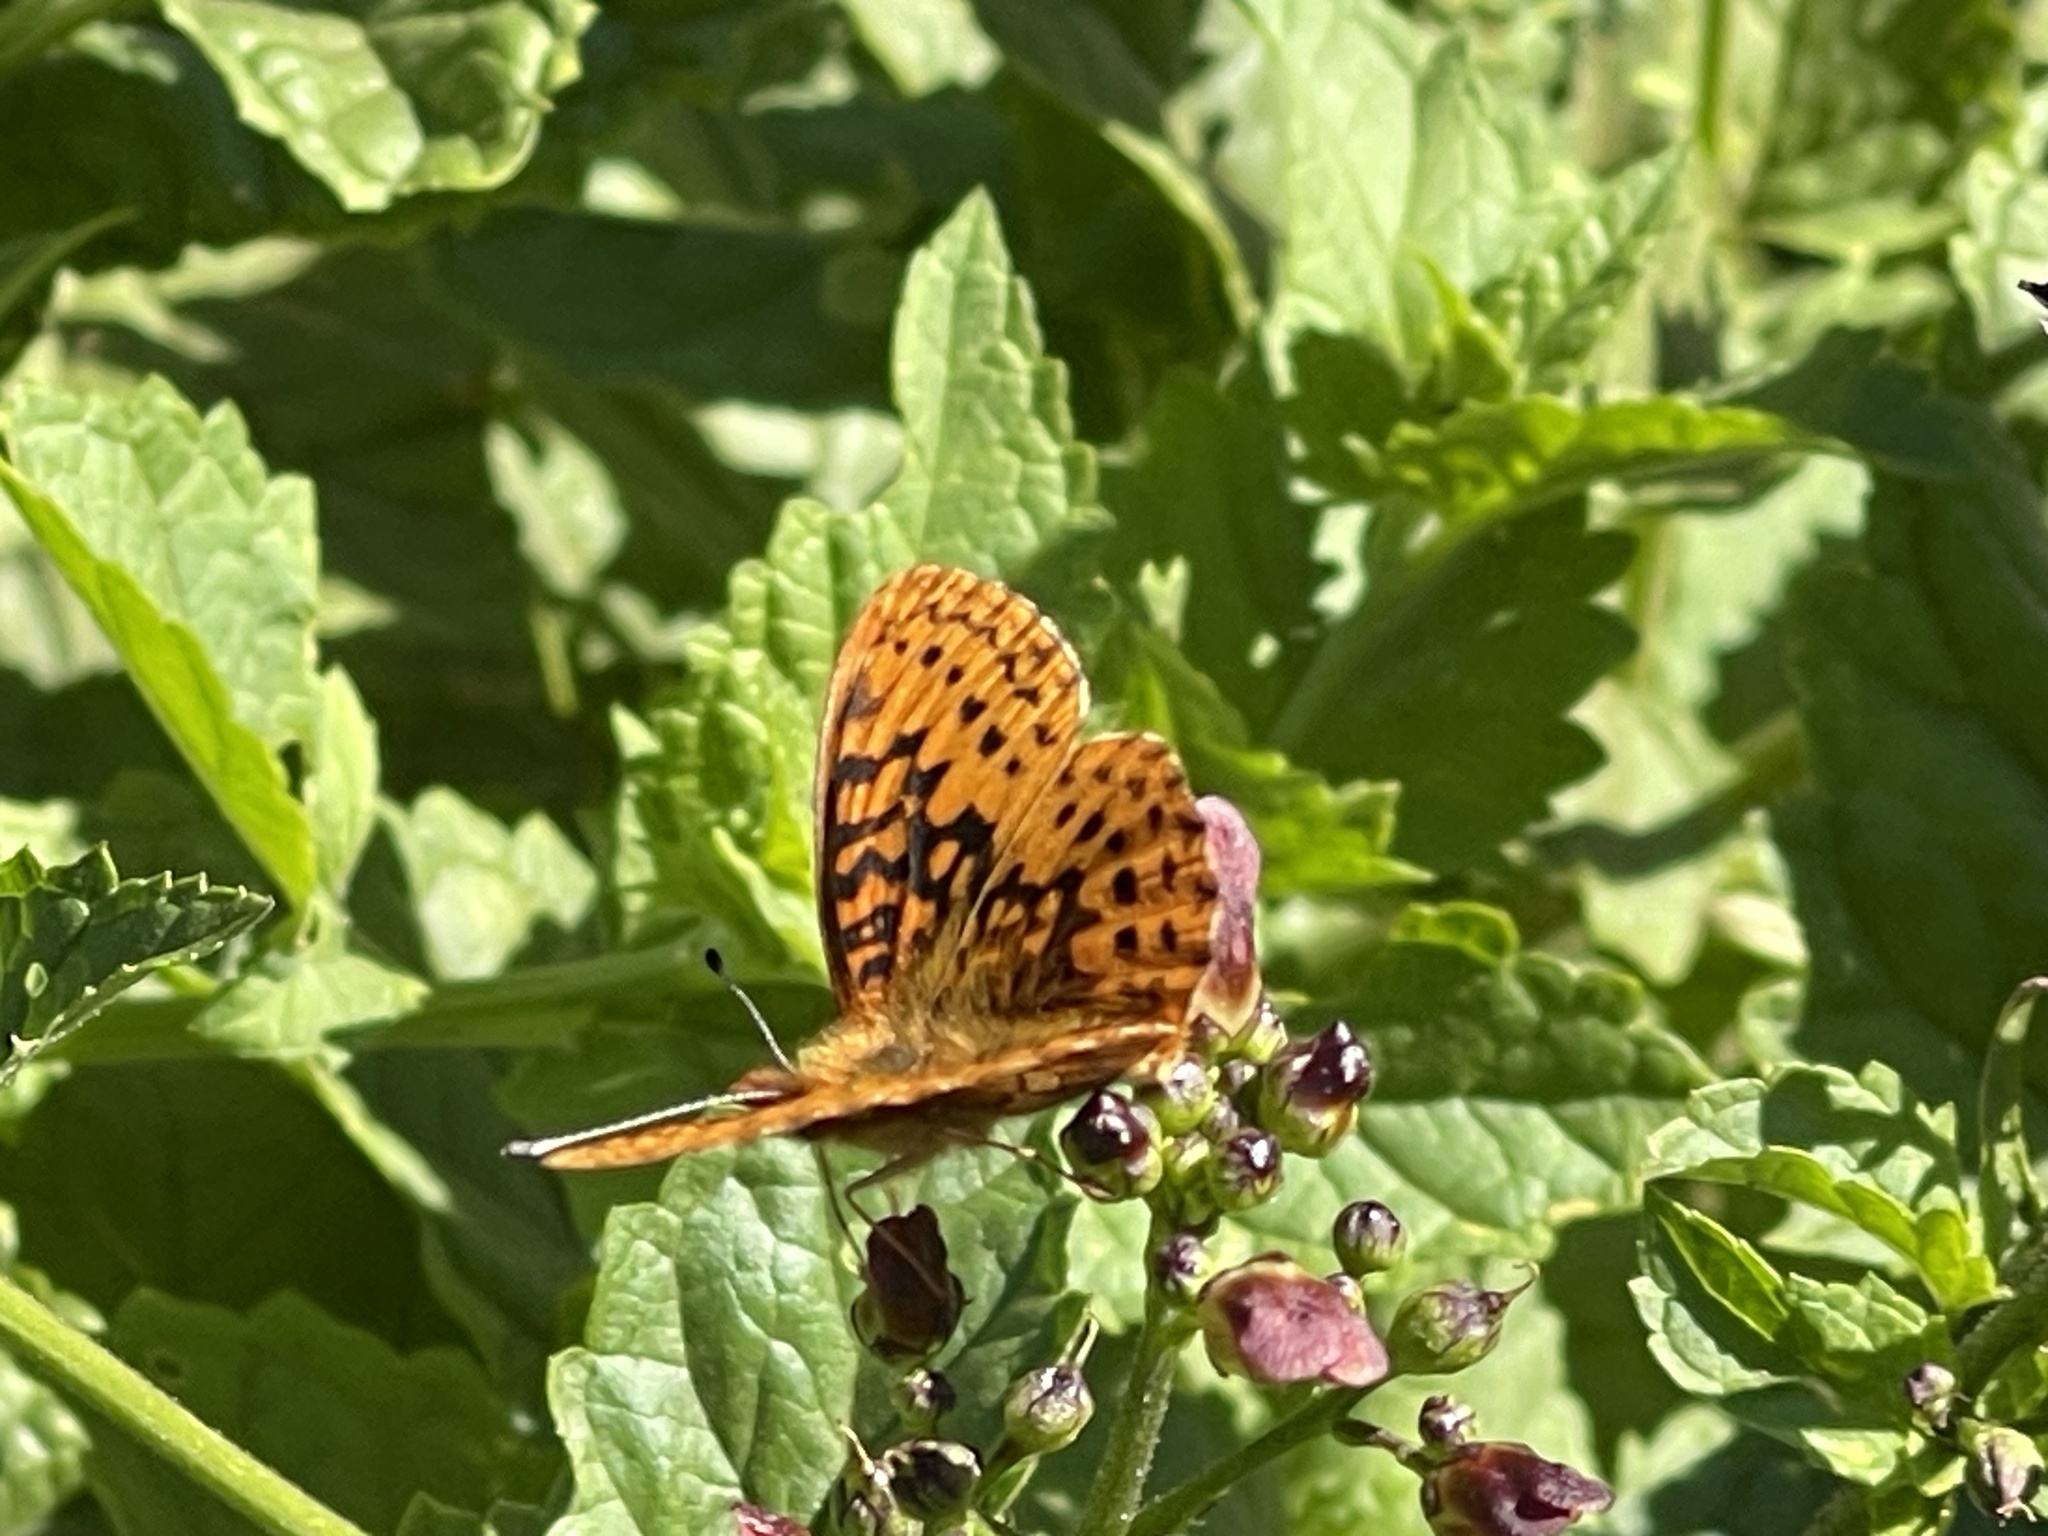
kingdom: Animalia
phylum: Arthropoda
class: Insecta
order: Lepidoptera
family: Nymphalidae
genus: Boloria
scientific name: Boloria epithore
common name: Pacific fritillary
